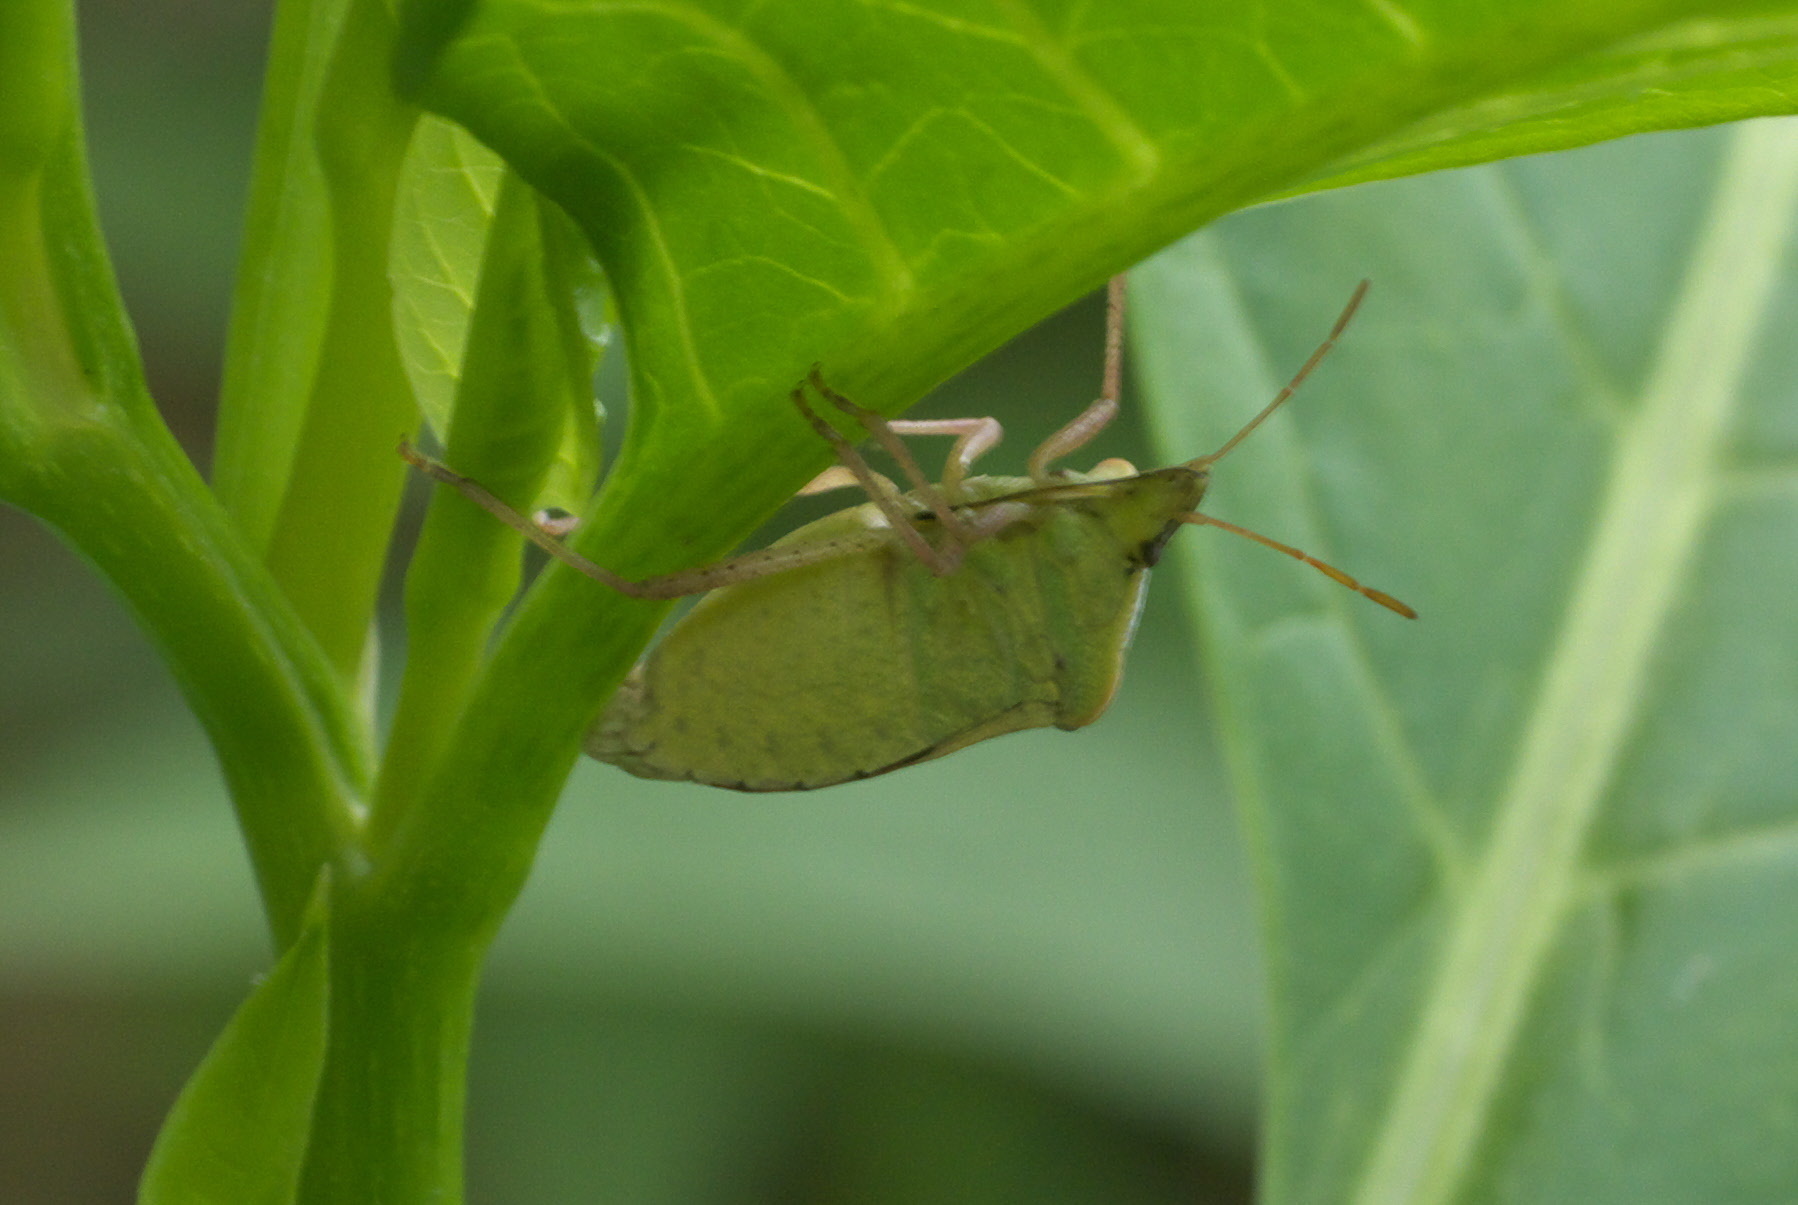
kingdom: Animalia
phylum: Arthropoda
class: Insecta
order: Hemiptera
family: Pentatomidae
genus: Euschistus
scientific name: Euschistus servus
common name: Brown stink bug
